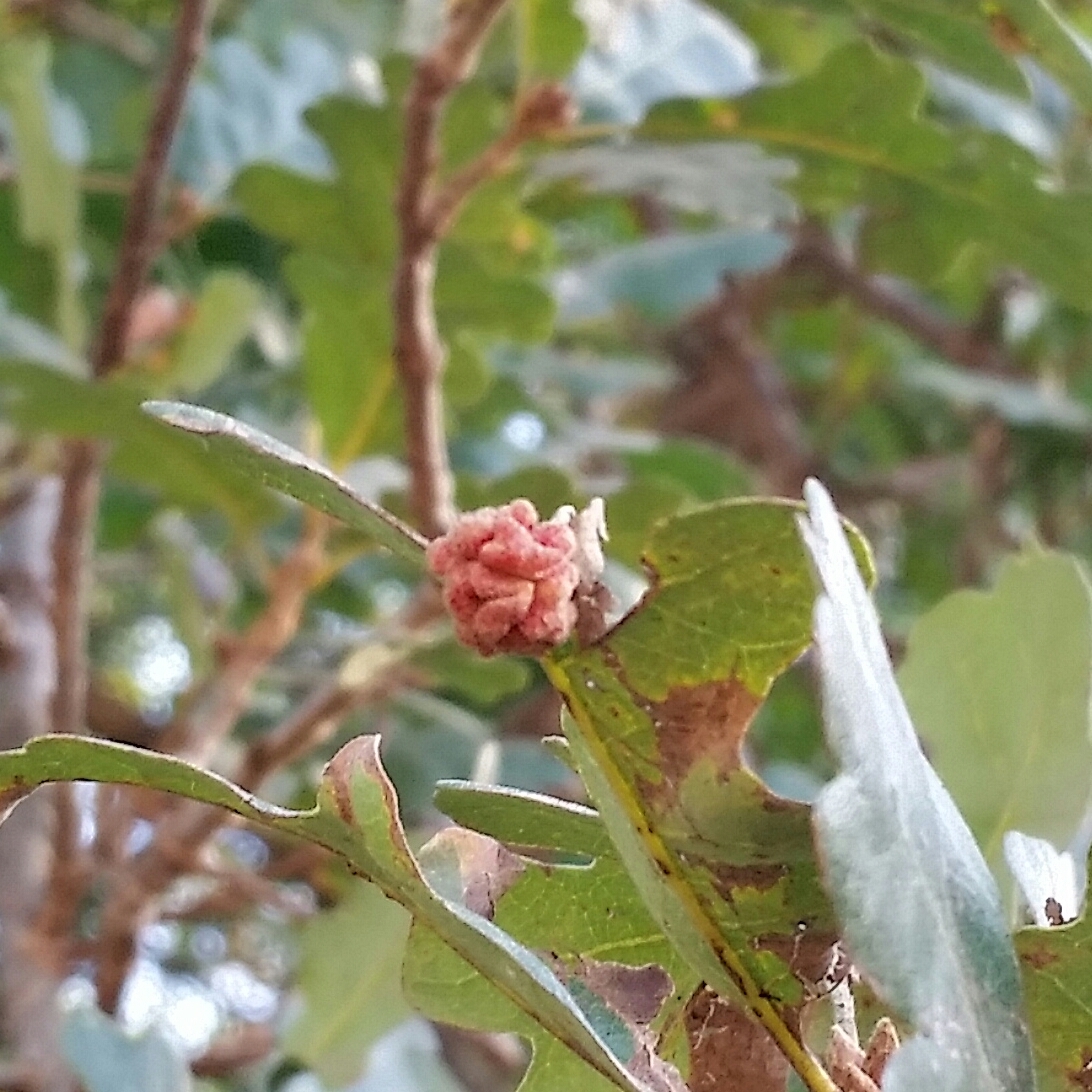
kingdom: Animalia
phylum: Arthropoda
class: Insecta
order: Hymenoptera
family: Cynipidae
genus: Andricus
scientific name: Andricus
